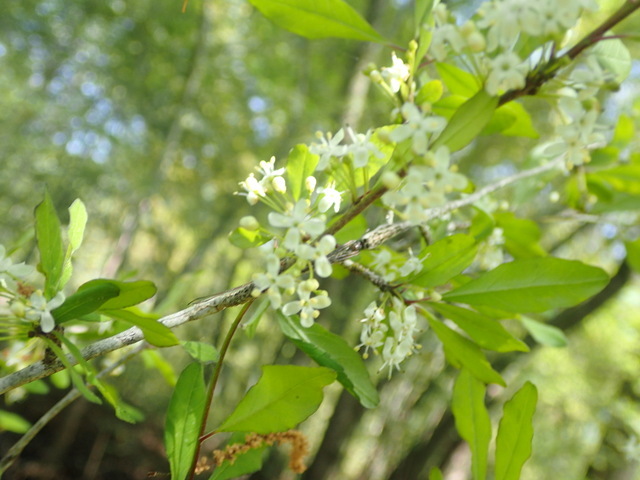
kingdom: Plantae
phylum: Tracheophyta
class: Magnoliopsida
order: Aquifoliales
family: Aquifoliaceae
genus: Ilex
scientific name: Ilex decidua
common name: Possum-haw
